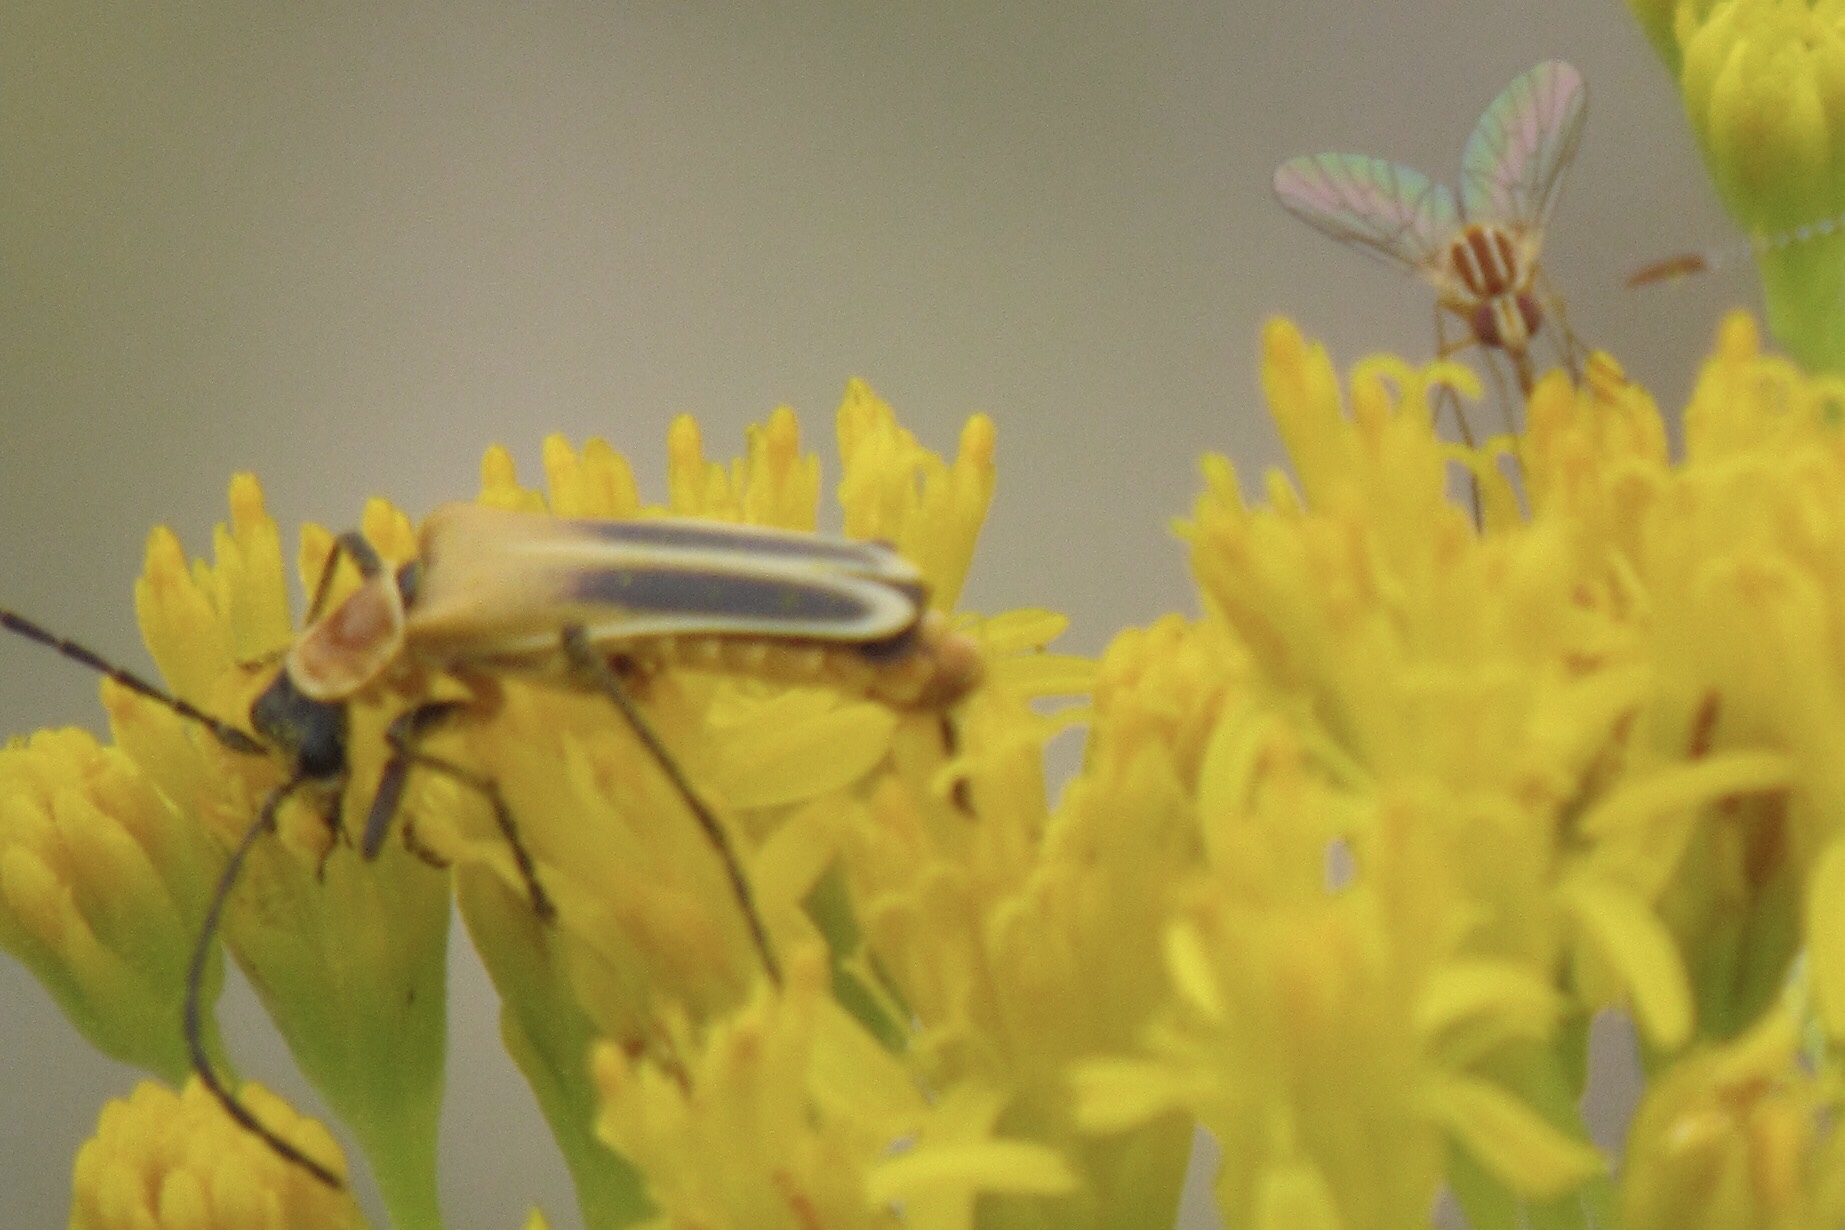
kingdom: Animalia
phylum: Arthropoda
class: Insecta
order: Coleoptera
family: Cantharidae
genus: Chauliognathus
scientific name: Chauliognathus lewisi
